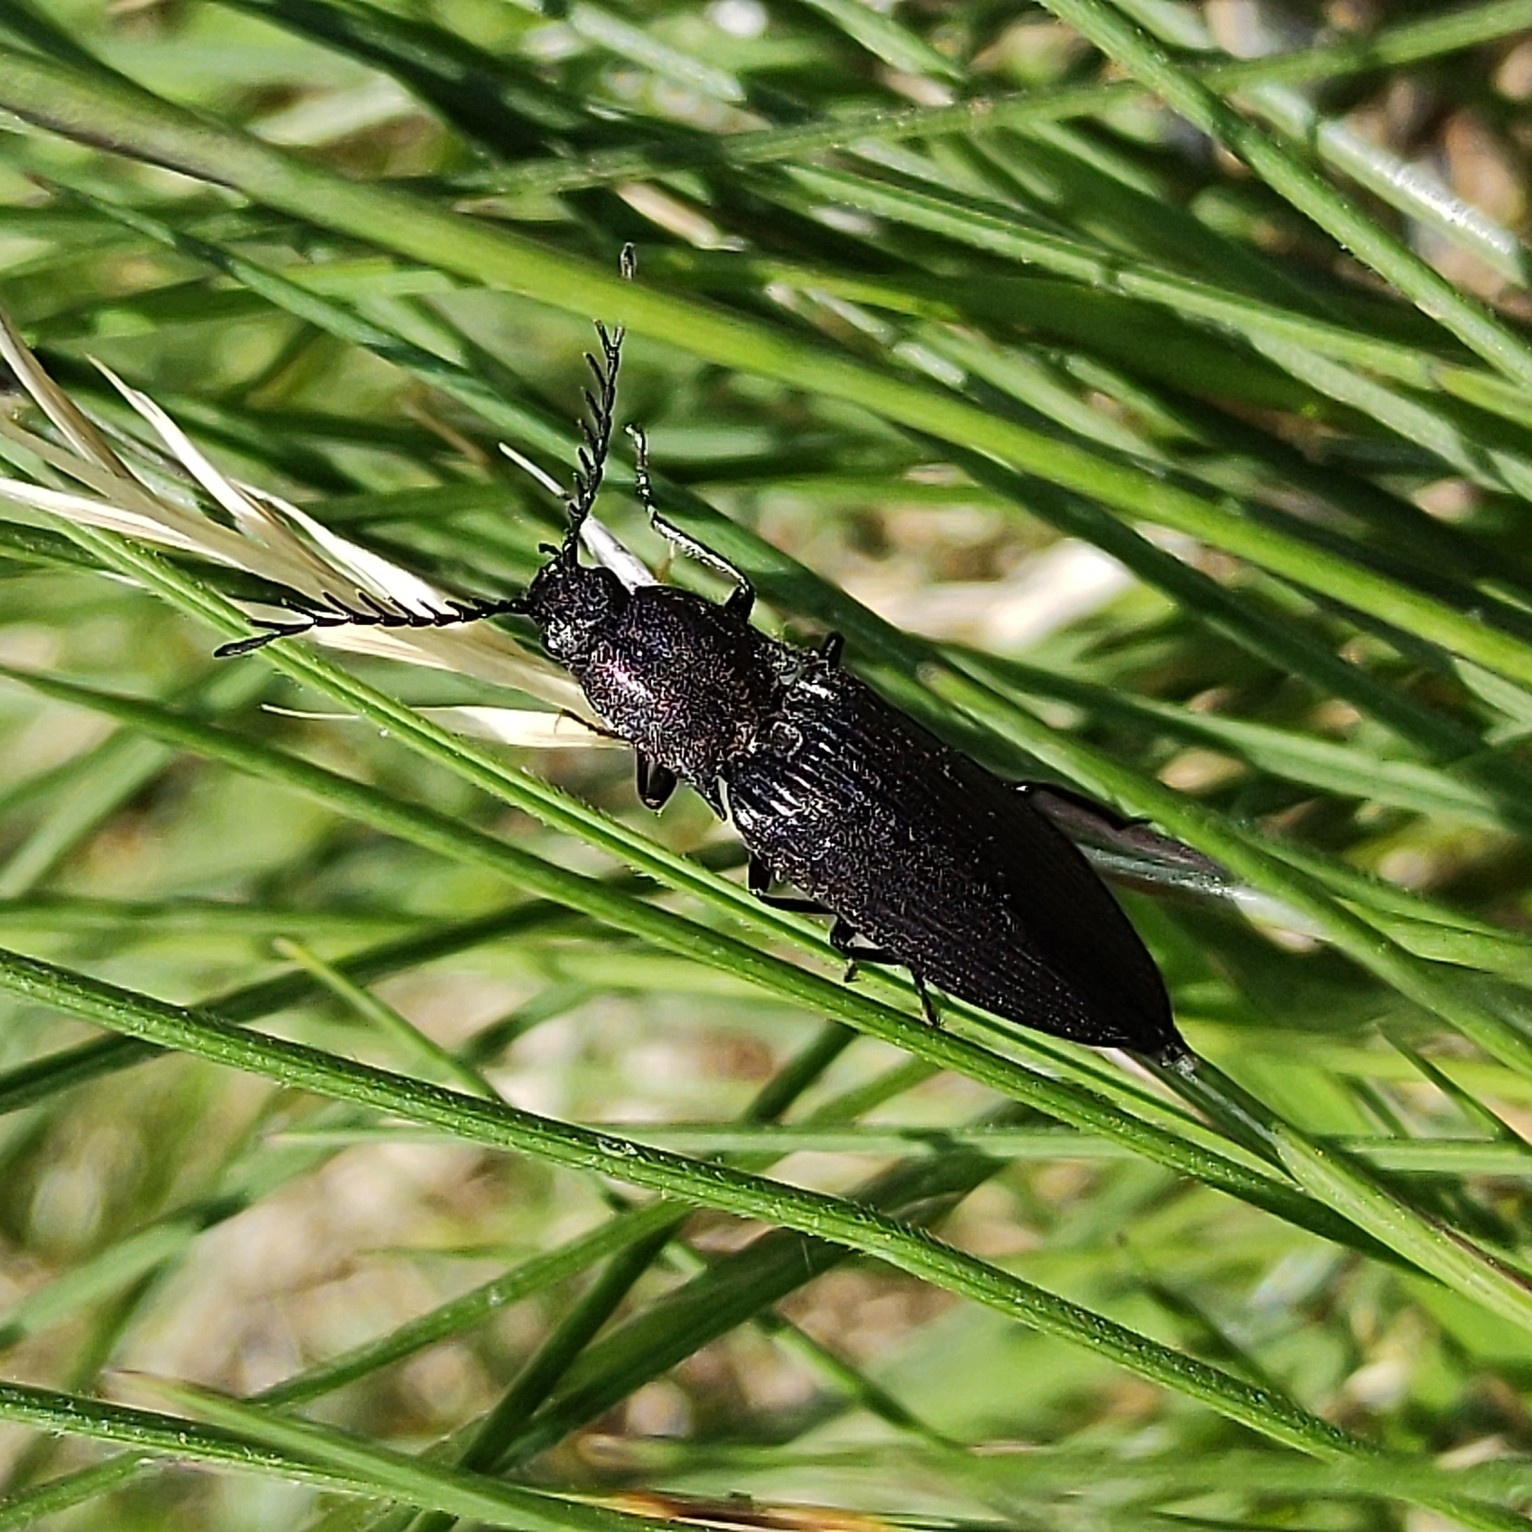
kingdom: Animalia
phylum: Arthropoda
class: Insecta
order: Coleoptera
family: Elateridae
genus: Ctenicera
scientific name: Ctenicera cuprea
